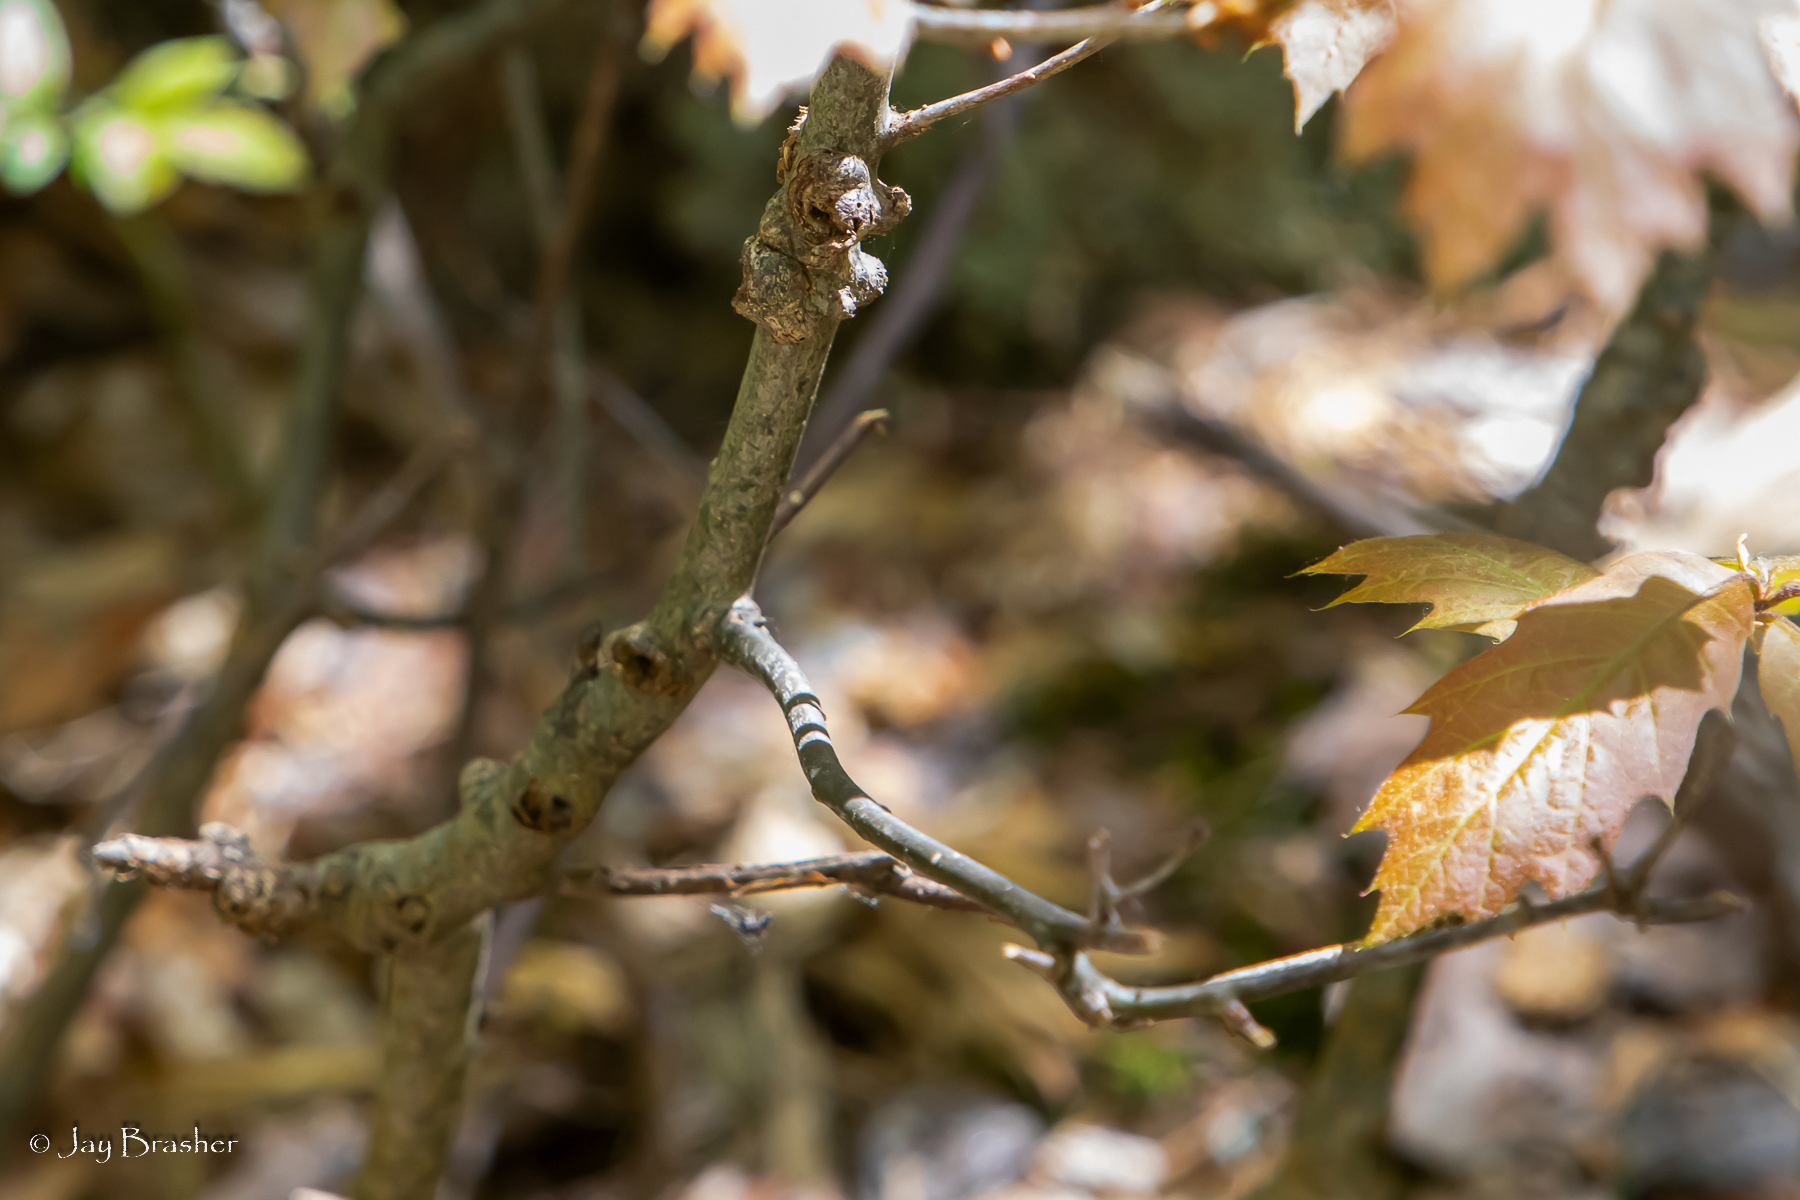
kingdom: Plantae
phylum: Tracheophyta
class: Magnoliopsida
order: Fagales
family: Fagaceae
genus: Quercus
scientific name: Quercus rubra
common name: Red oak
